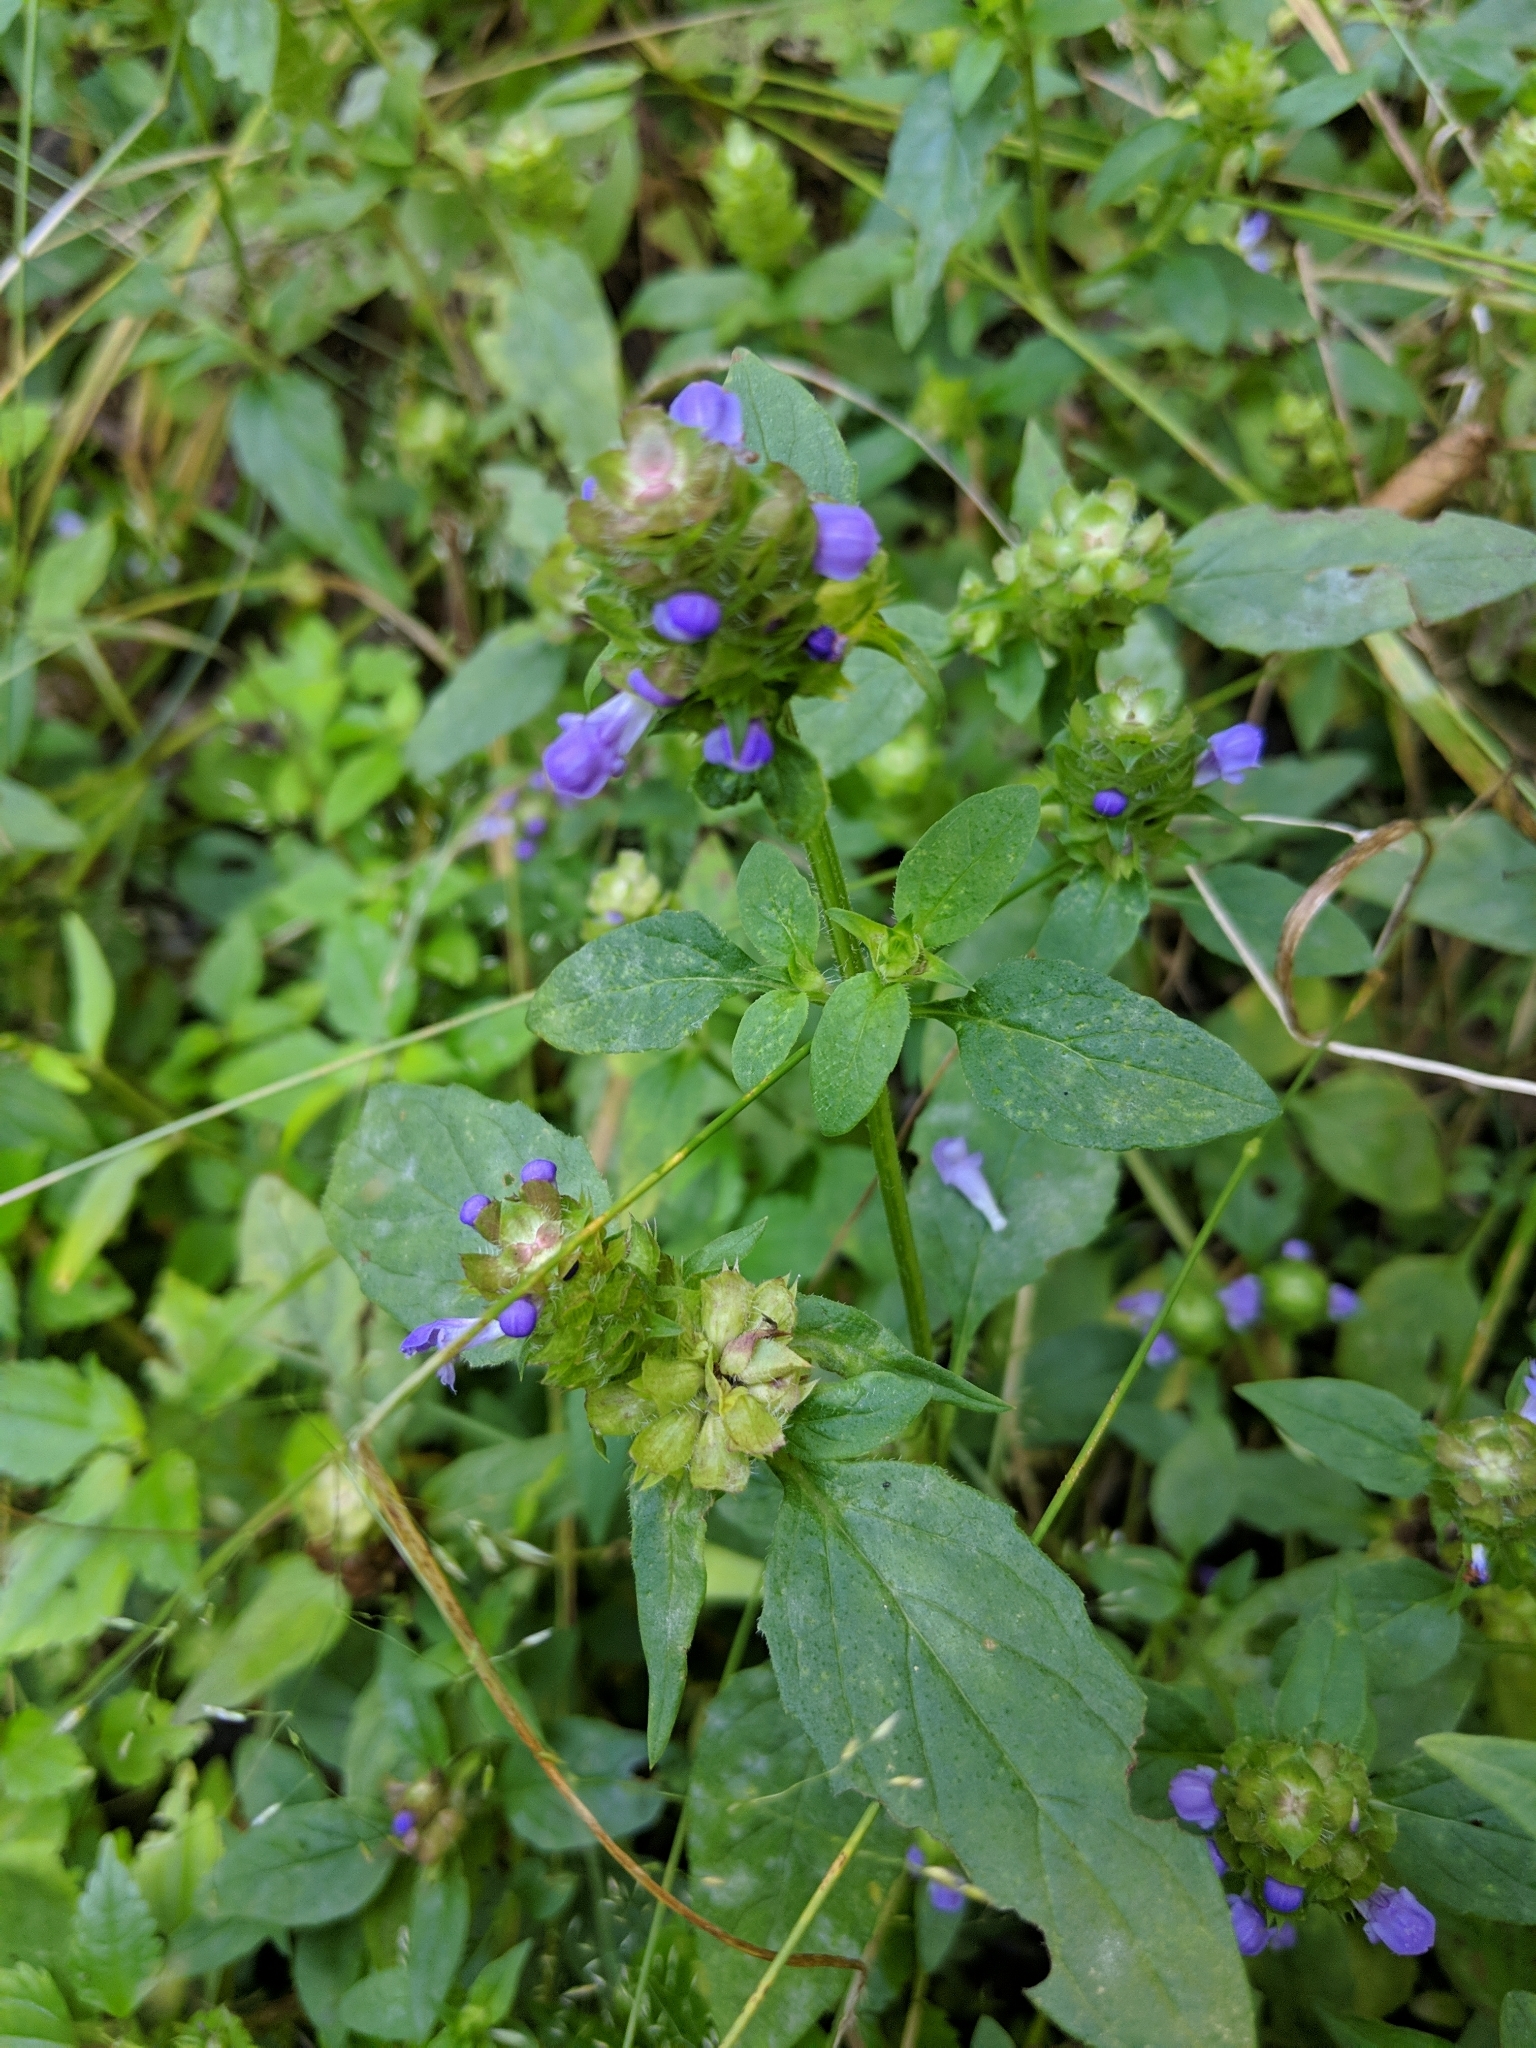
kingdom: Plantae
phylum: Tracheophyta
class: Magnoliopsida
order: Lamiales
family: Lamiaceae
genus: Prunella
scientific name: Prunella vulgaris
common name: Heal-all
